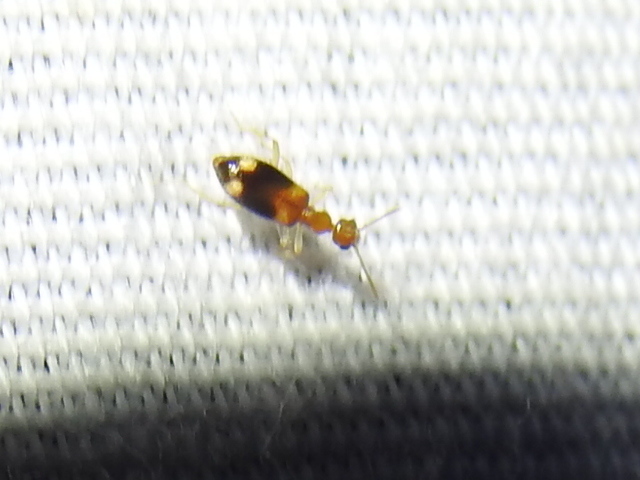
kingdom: Animalia
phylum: Arthropoda
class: Insecta
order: Coleoptera
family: Anthicidae
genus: Stricticollis
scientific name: Stricticollis tobias
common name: Two-dotted ant-like flower beetle
